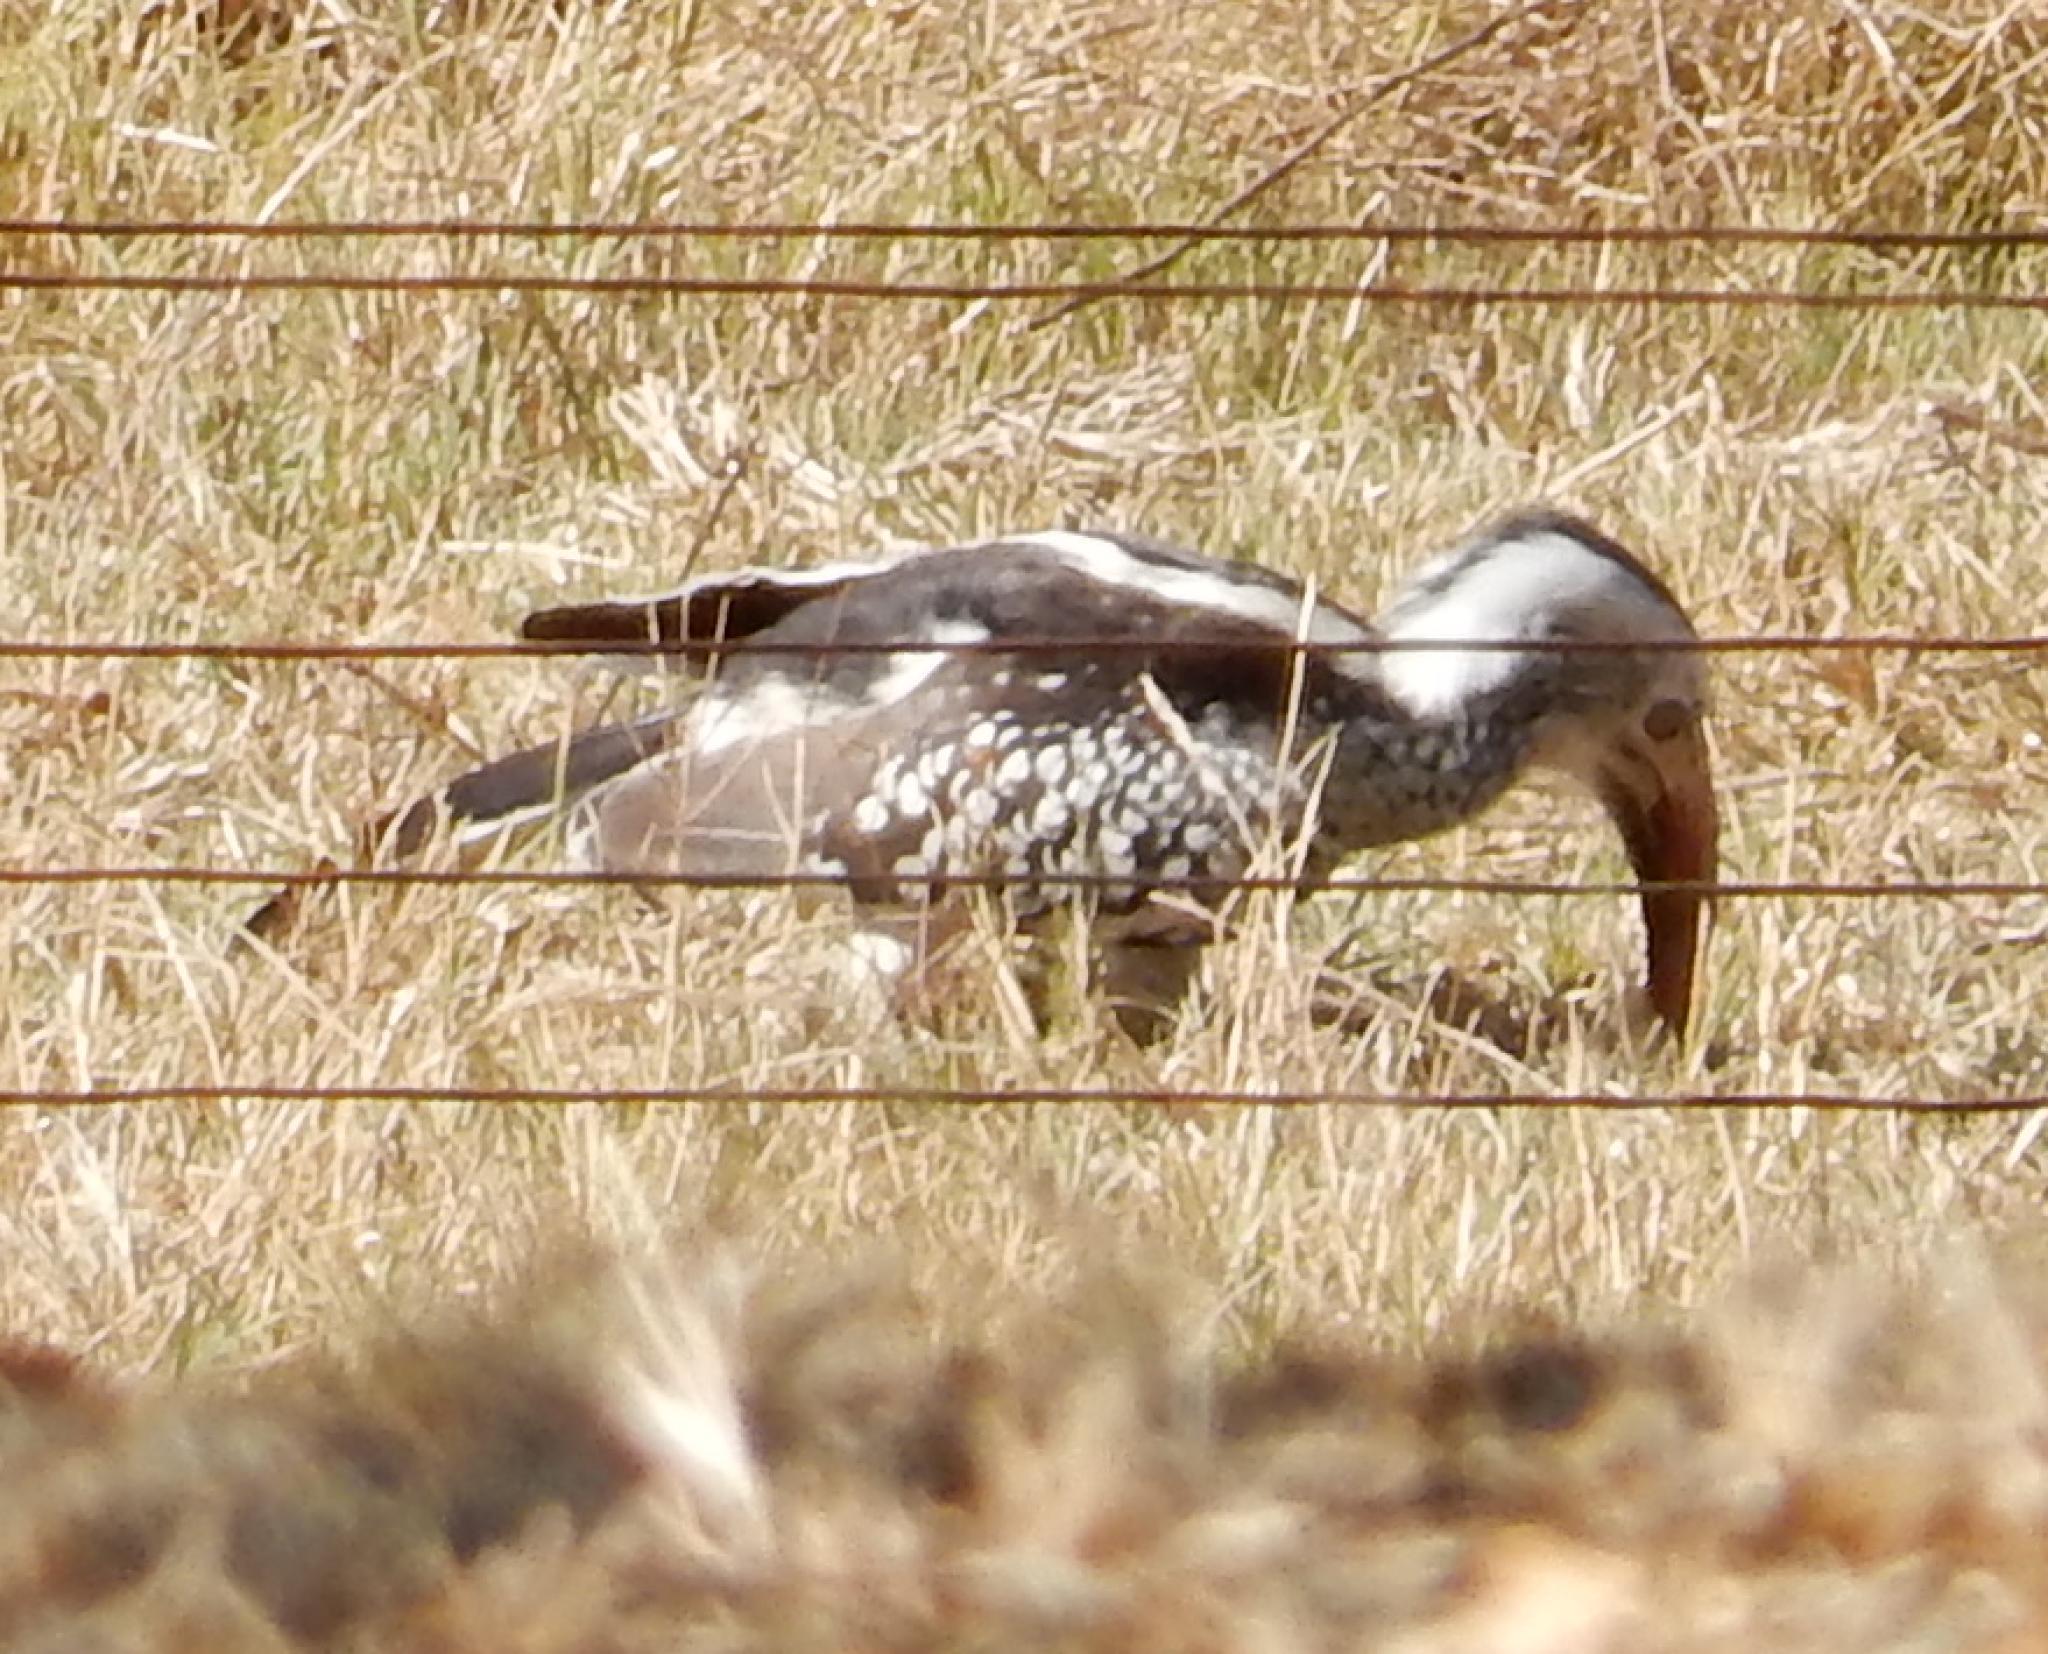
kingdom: Animalia
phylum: Chordata
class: Aves
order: Bucerotiformes
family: Bucerotidae
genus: Tockus
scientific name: Tockus rufirostris
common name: Southern red-billed hornbill
